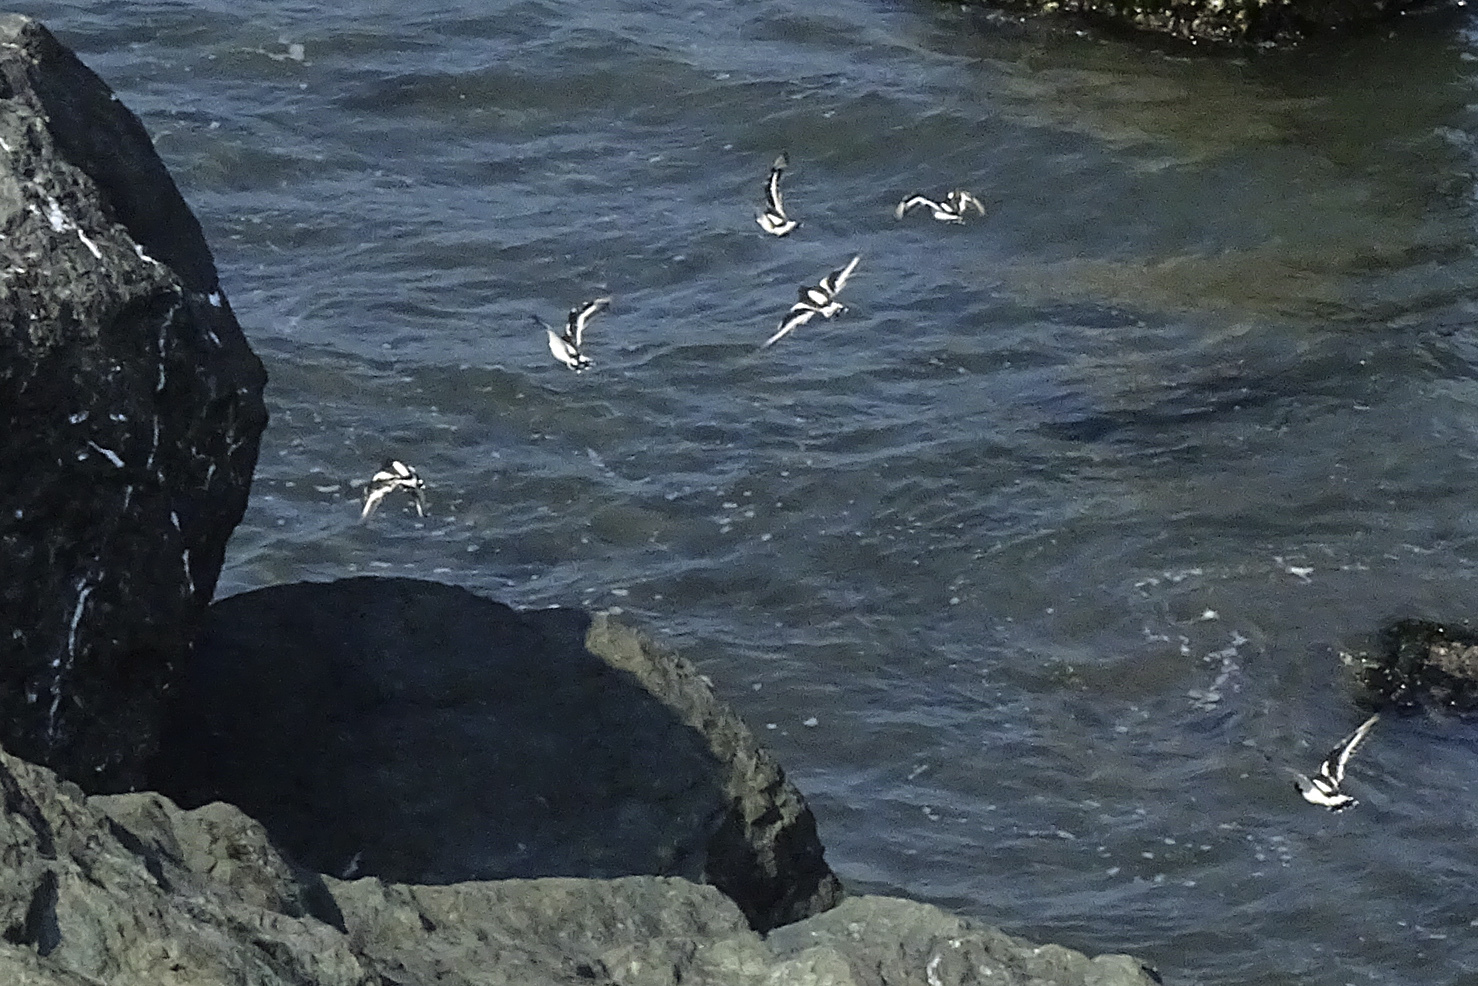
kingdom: Animalia
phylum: Chordata
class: Aves
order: Charadriiformes
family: Scolopacidae
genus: Arenaria
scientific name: Arenaria melanocephala
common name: Black turnstone
